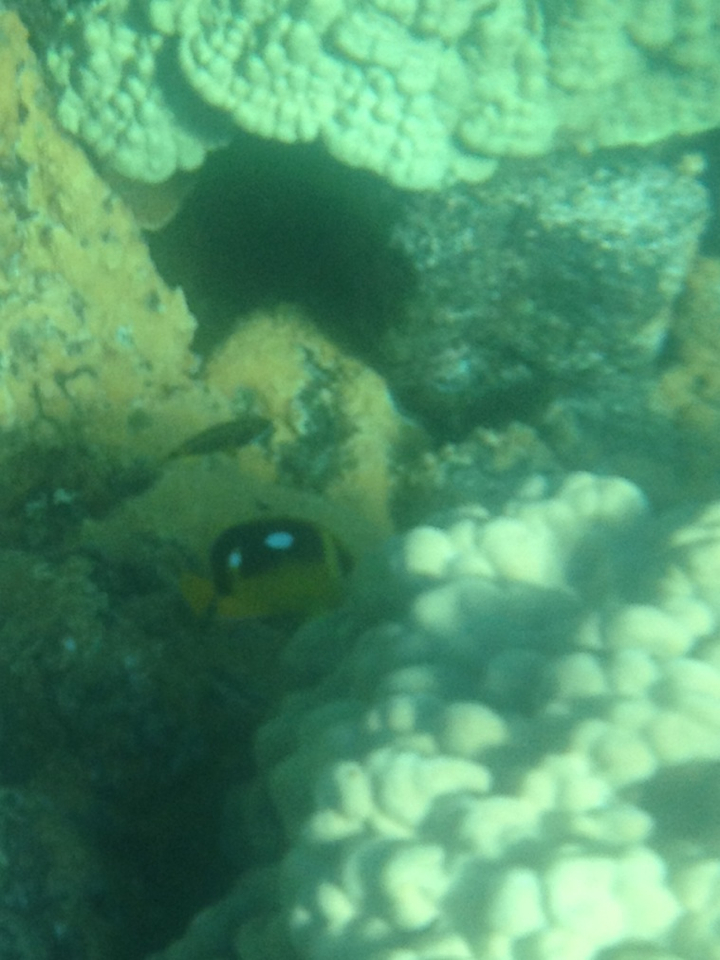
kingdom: Animalia
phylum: Chordata
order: Perciformes
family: Chaetodontidae
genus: Chaetodon
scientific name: Chaetodon quadrimaculatus
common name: Fourspot butterflyfish
